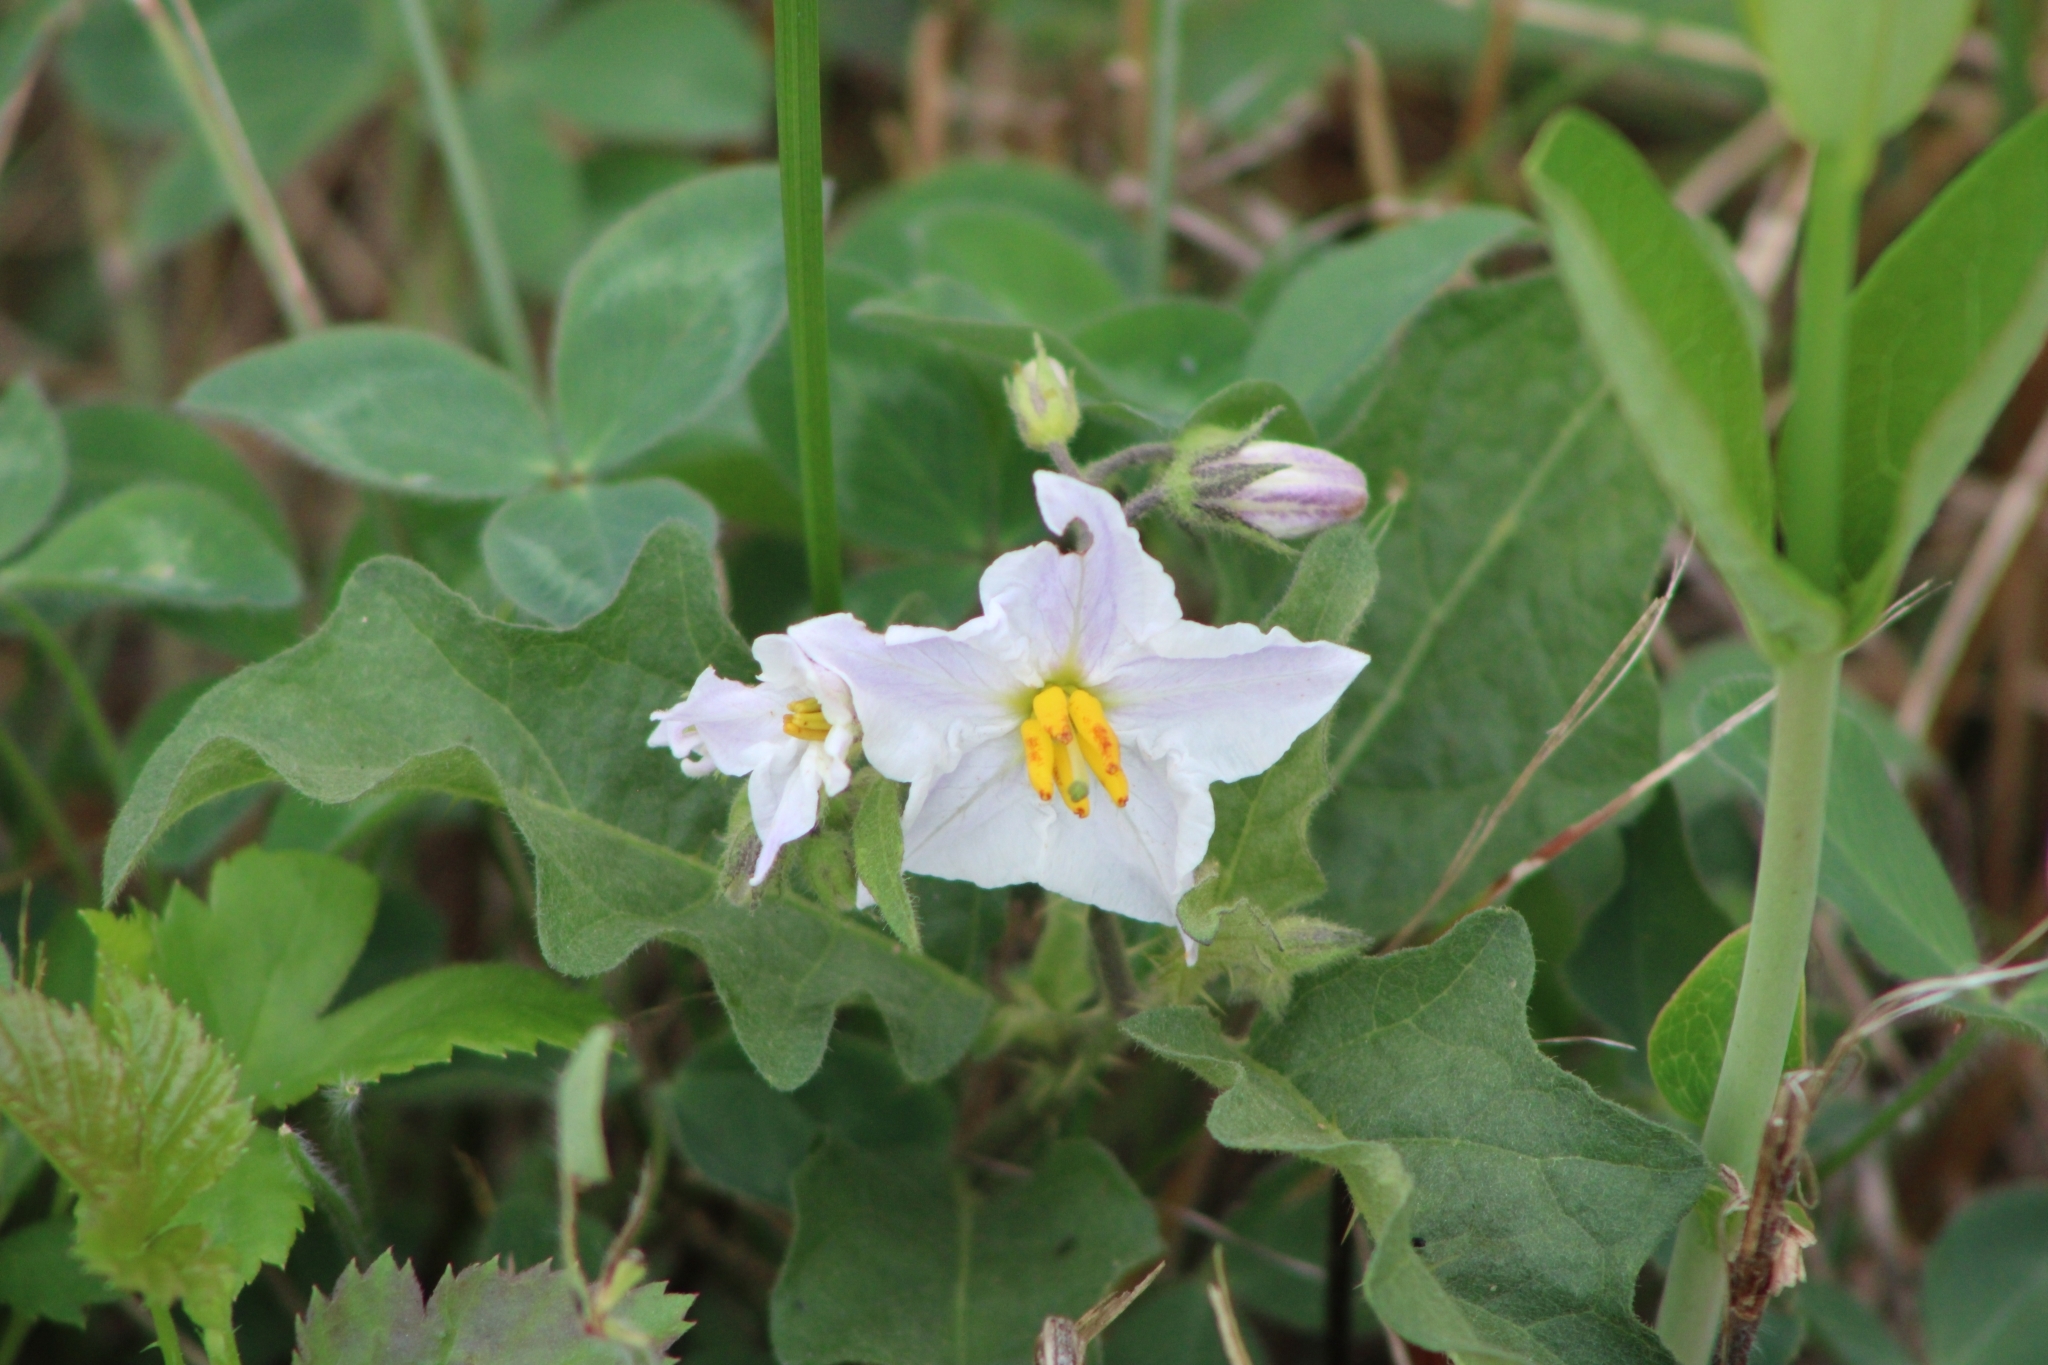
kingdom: Plantae
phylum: Tracheophyta
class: Magnoliopsida
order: Solanales
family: Solanaceae
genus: Solanum
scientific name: Solanum carolinense
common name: Horse-nettle
